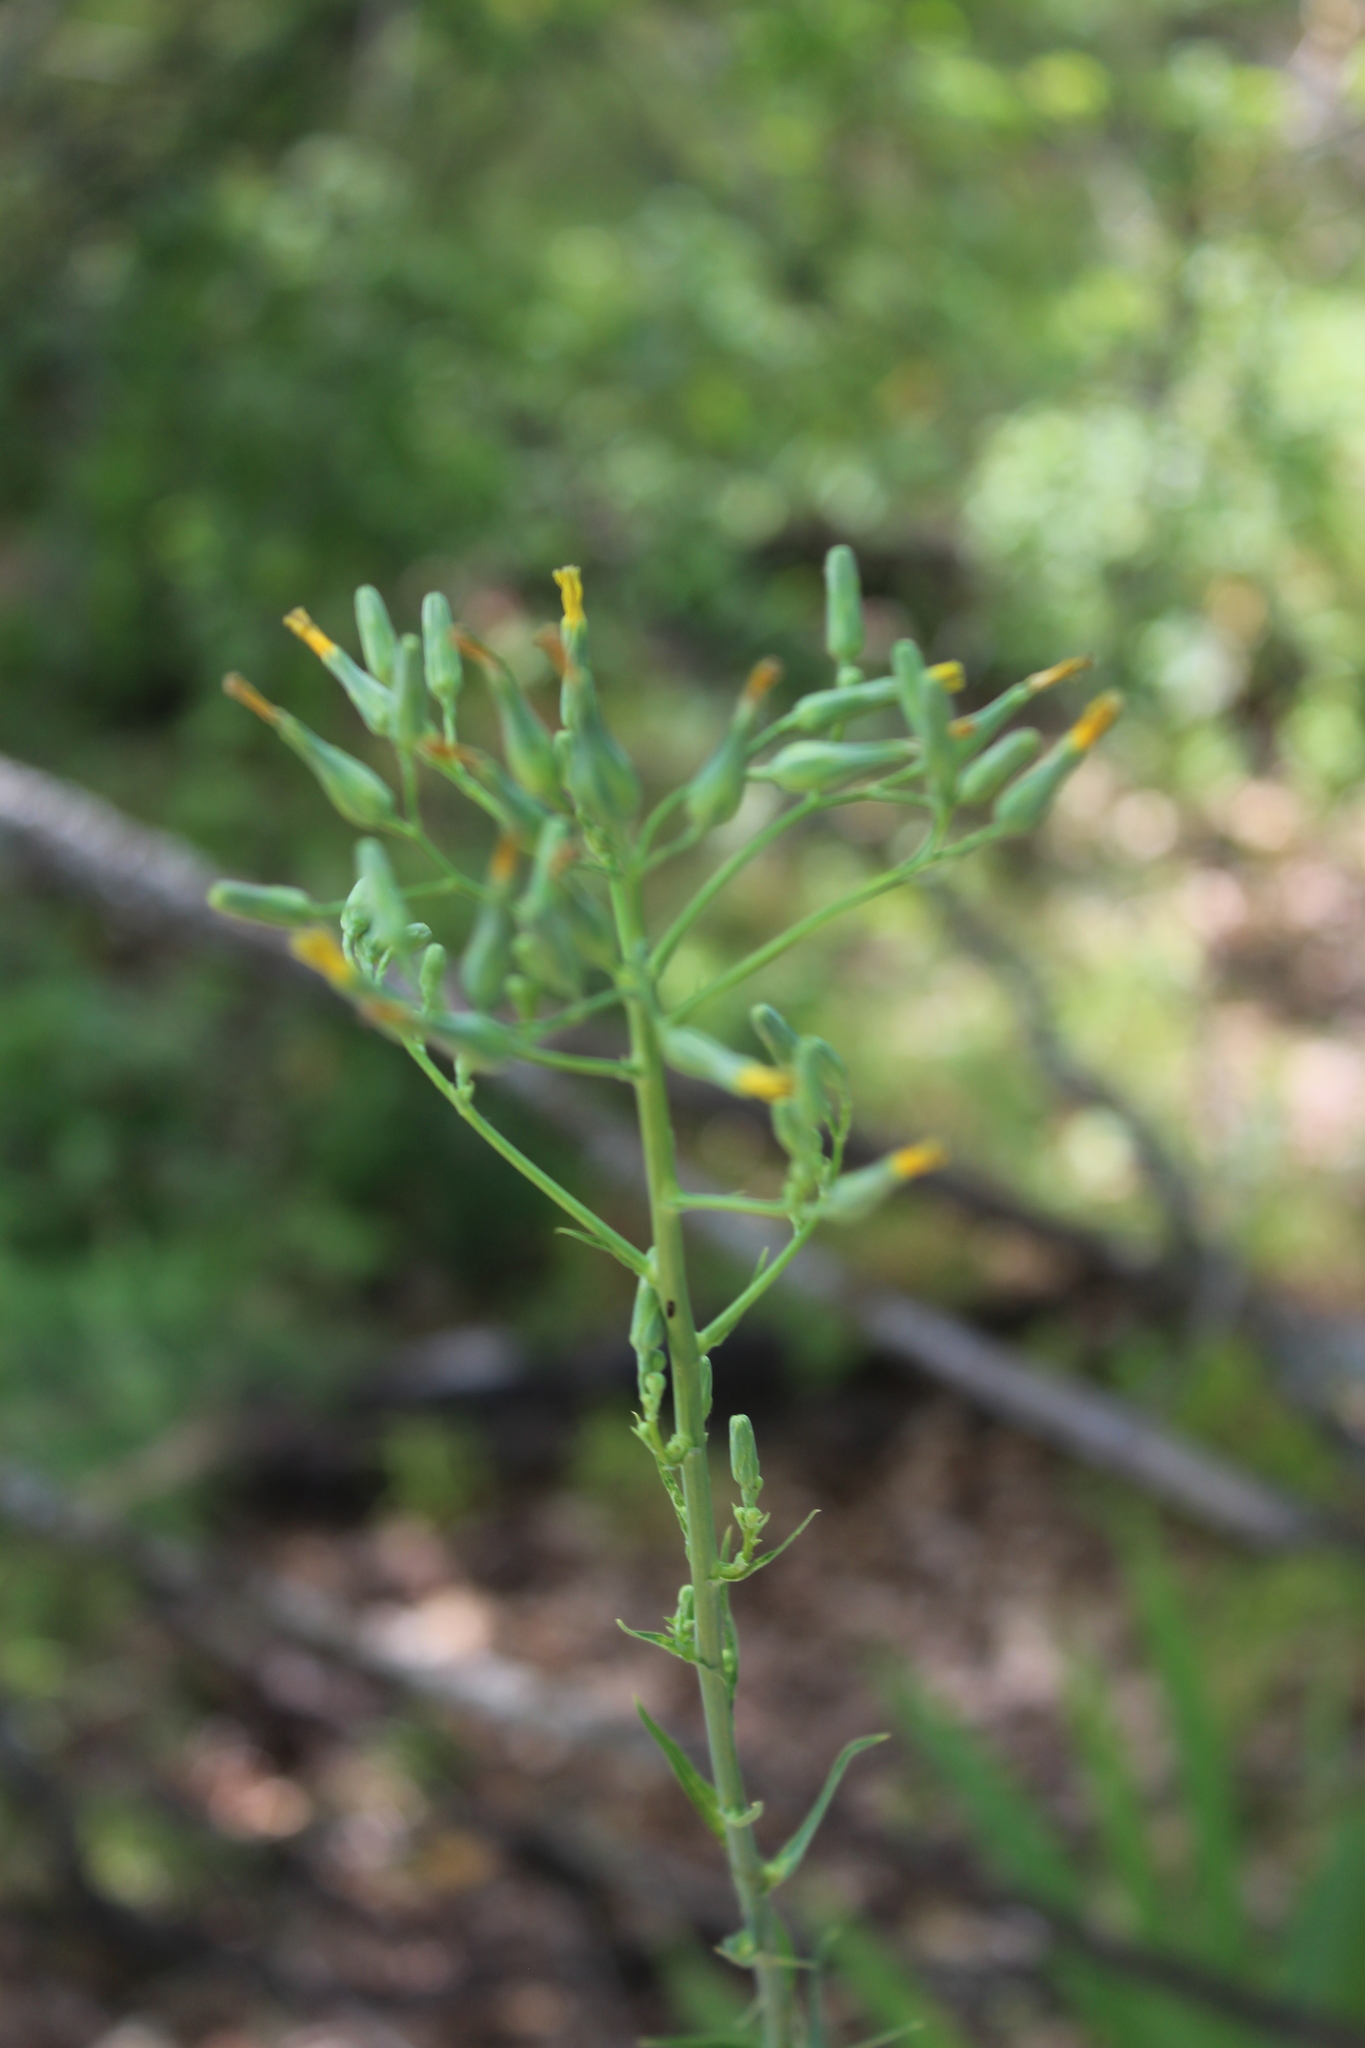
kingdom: Plantae
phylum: Tracheophyta
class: Magnoliopsida
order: Asterales
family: Asteraceae
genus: Lactuca
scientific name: Lactuca quercina
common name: Wild lettuce
